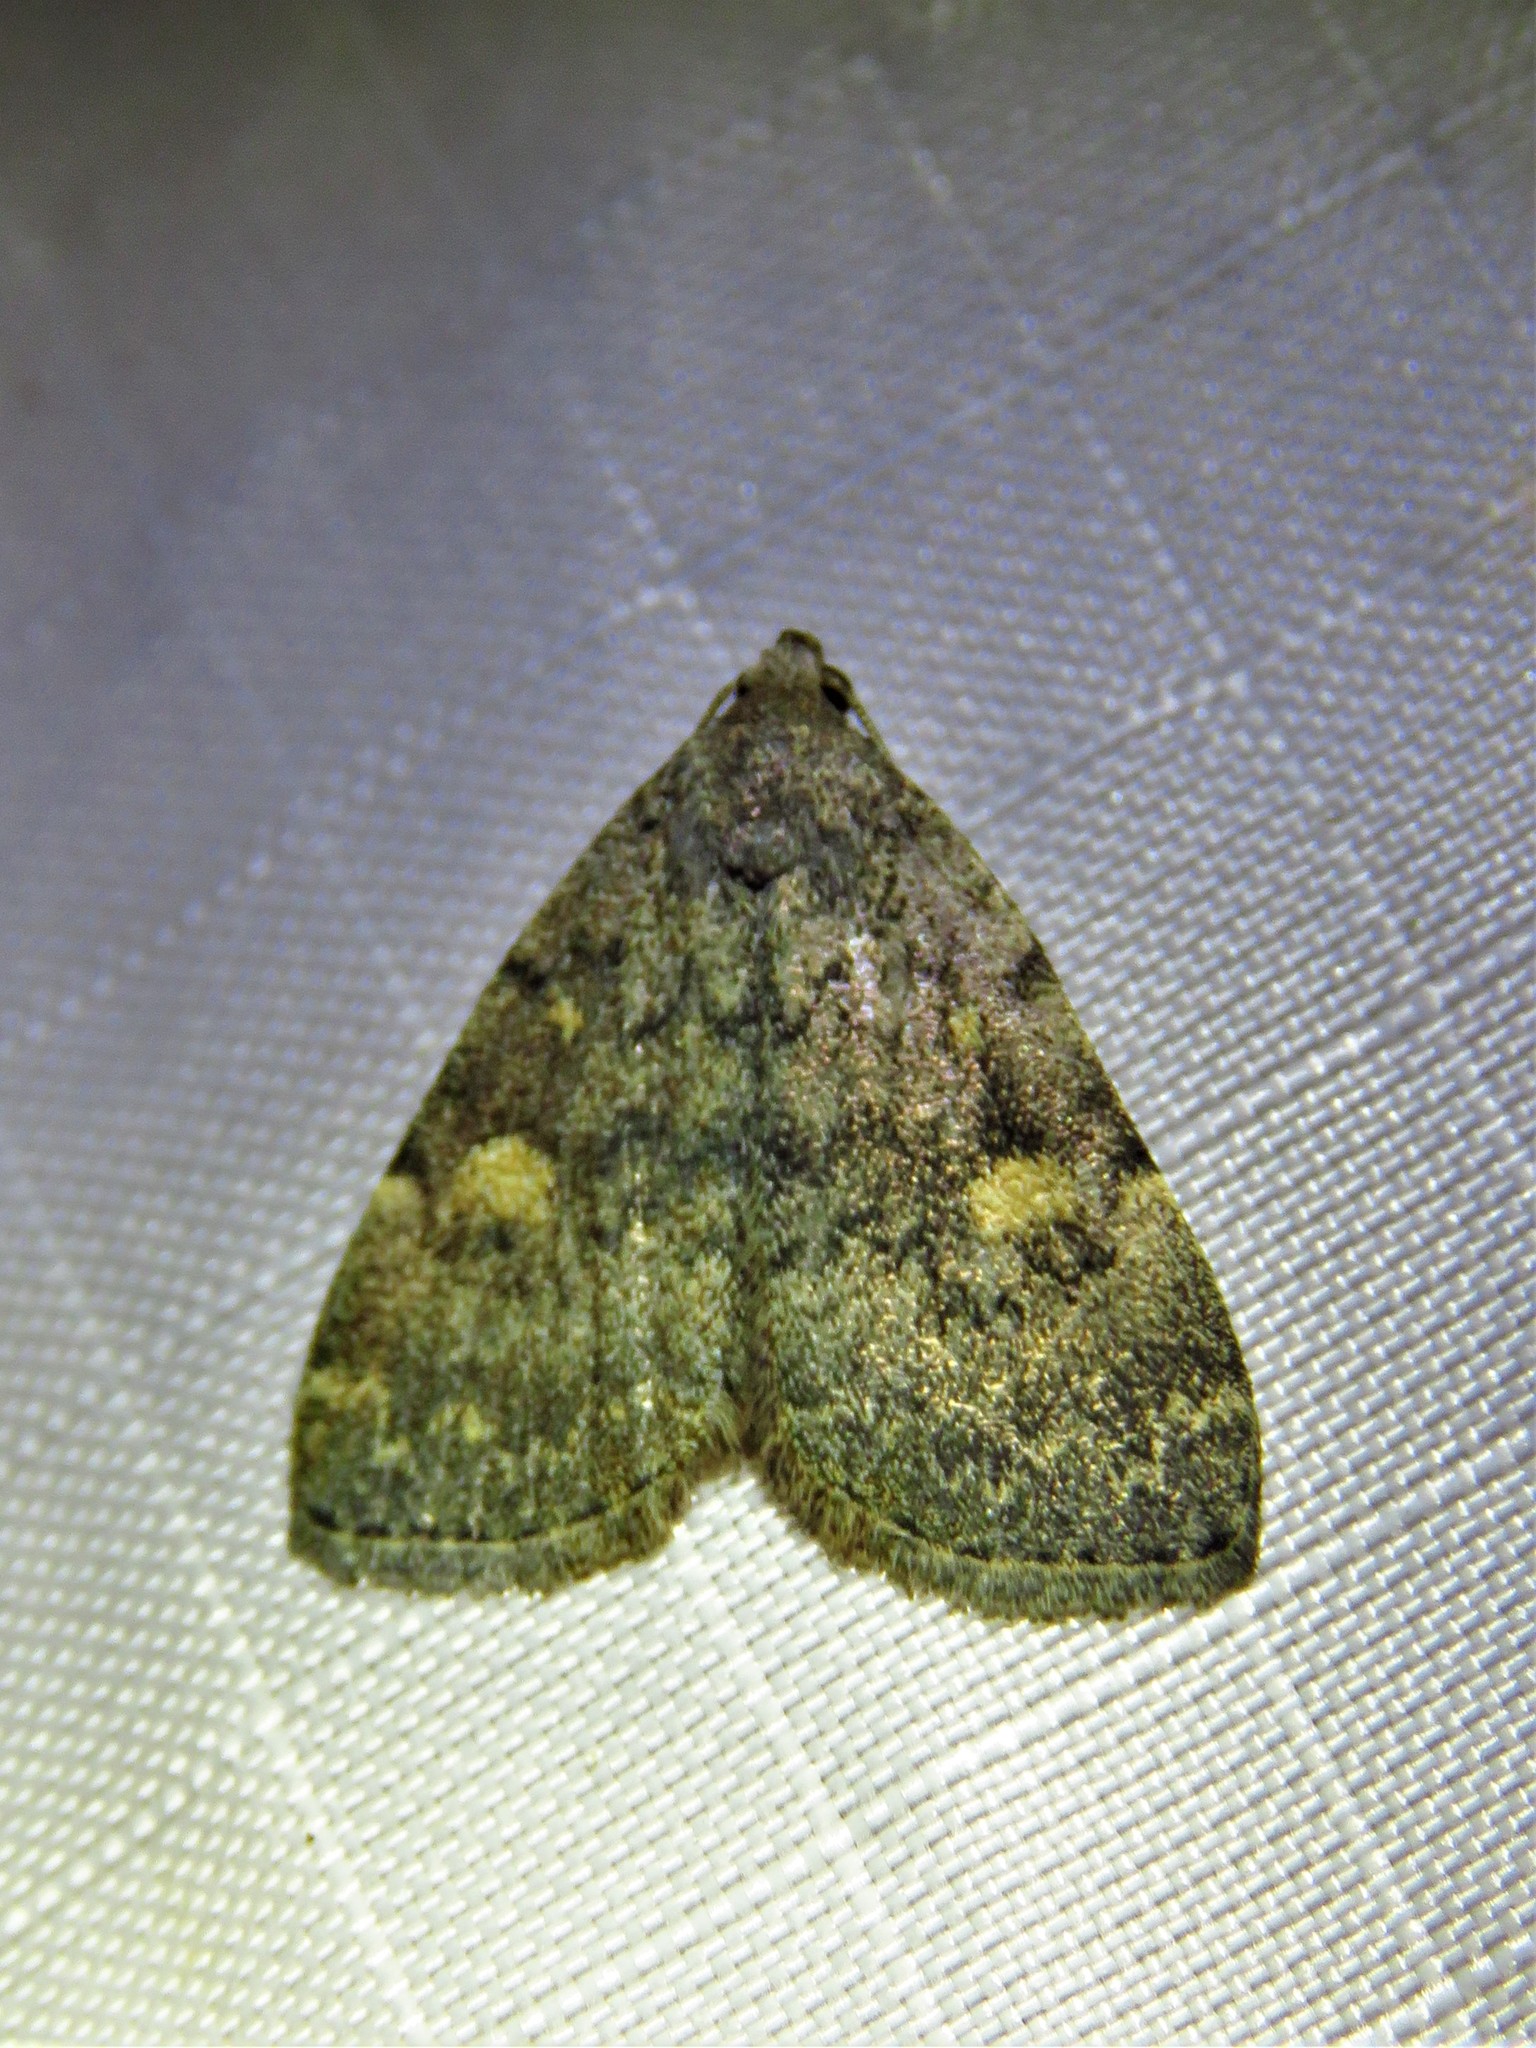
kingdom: Animalia
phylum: Arthropoda
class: Insecta
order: Lepidoptera
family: Erebidae
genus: Idia
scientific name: Idia aemula
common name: Common idia moth
